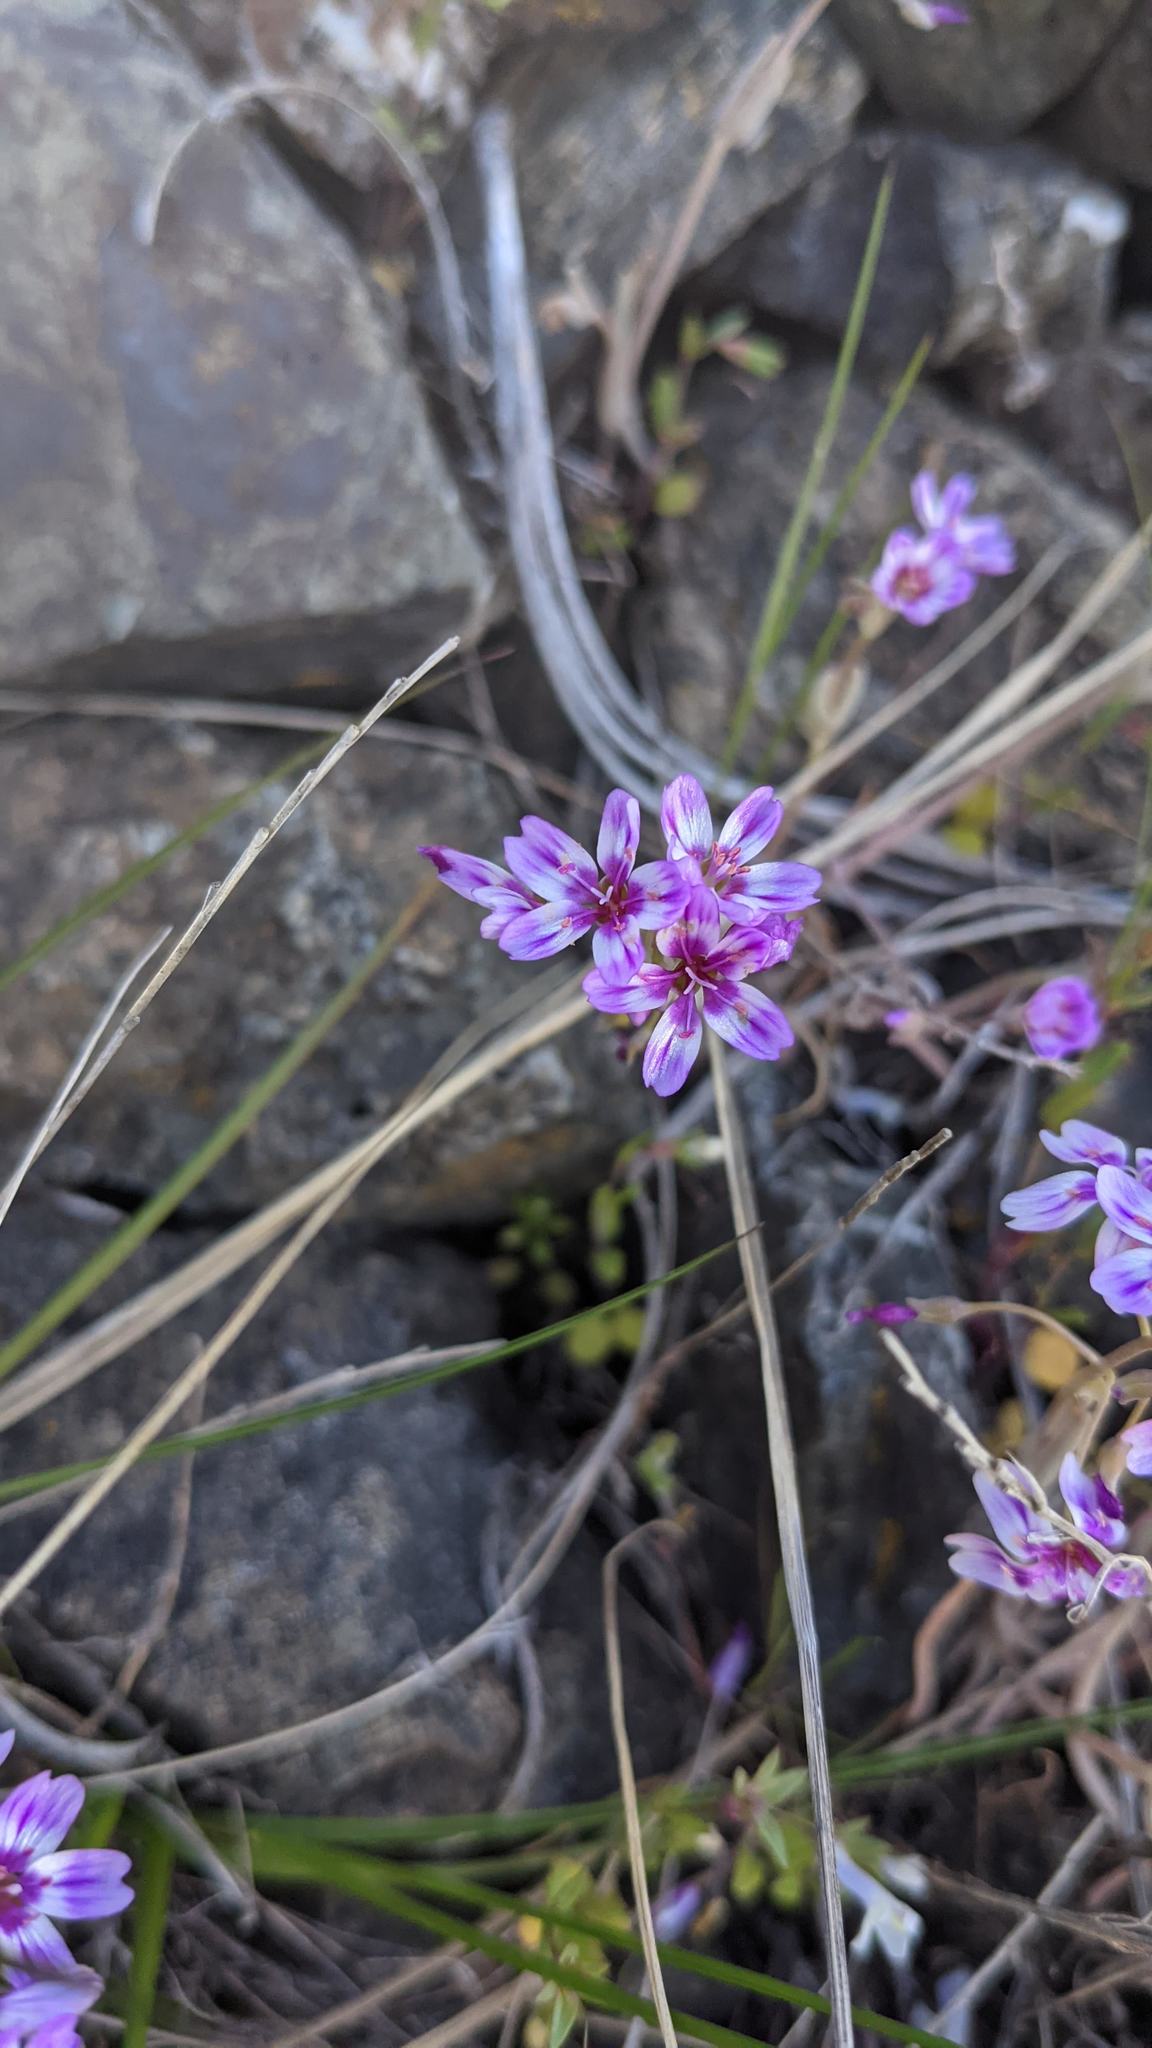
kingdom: Plantae
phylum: Tracheophyta
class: Magnoliopsida
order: Caryophyllales
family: Montiaceae
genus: Claytonia
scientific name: Claytonia gypsophiloides
